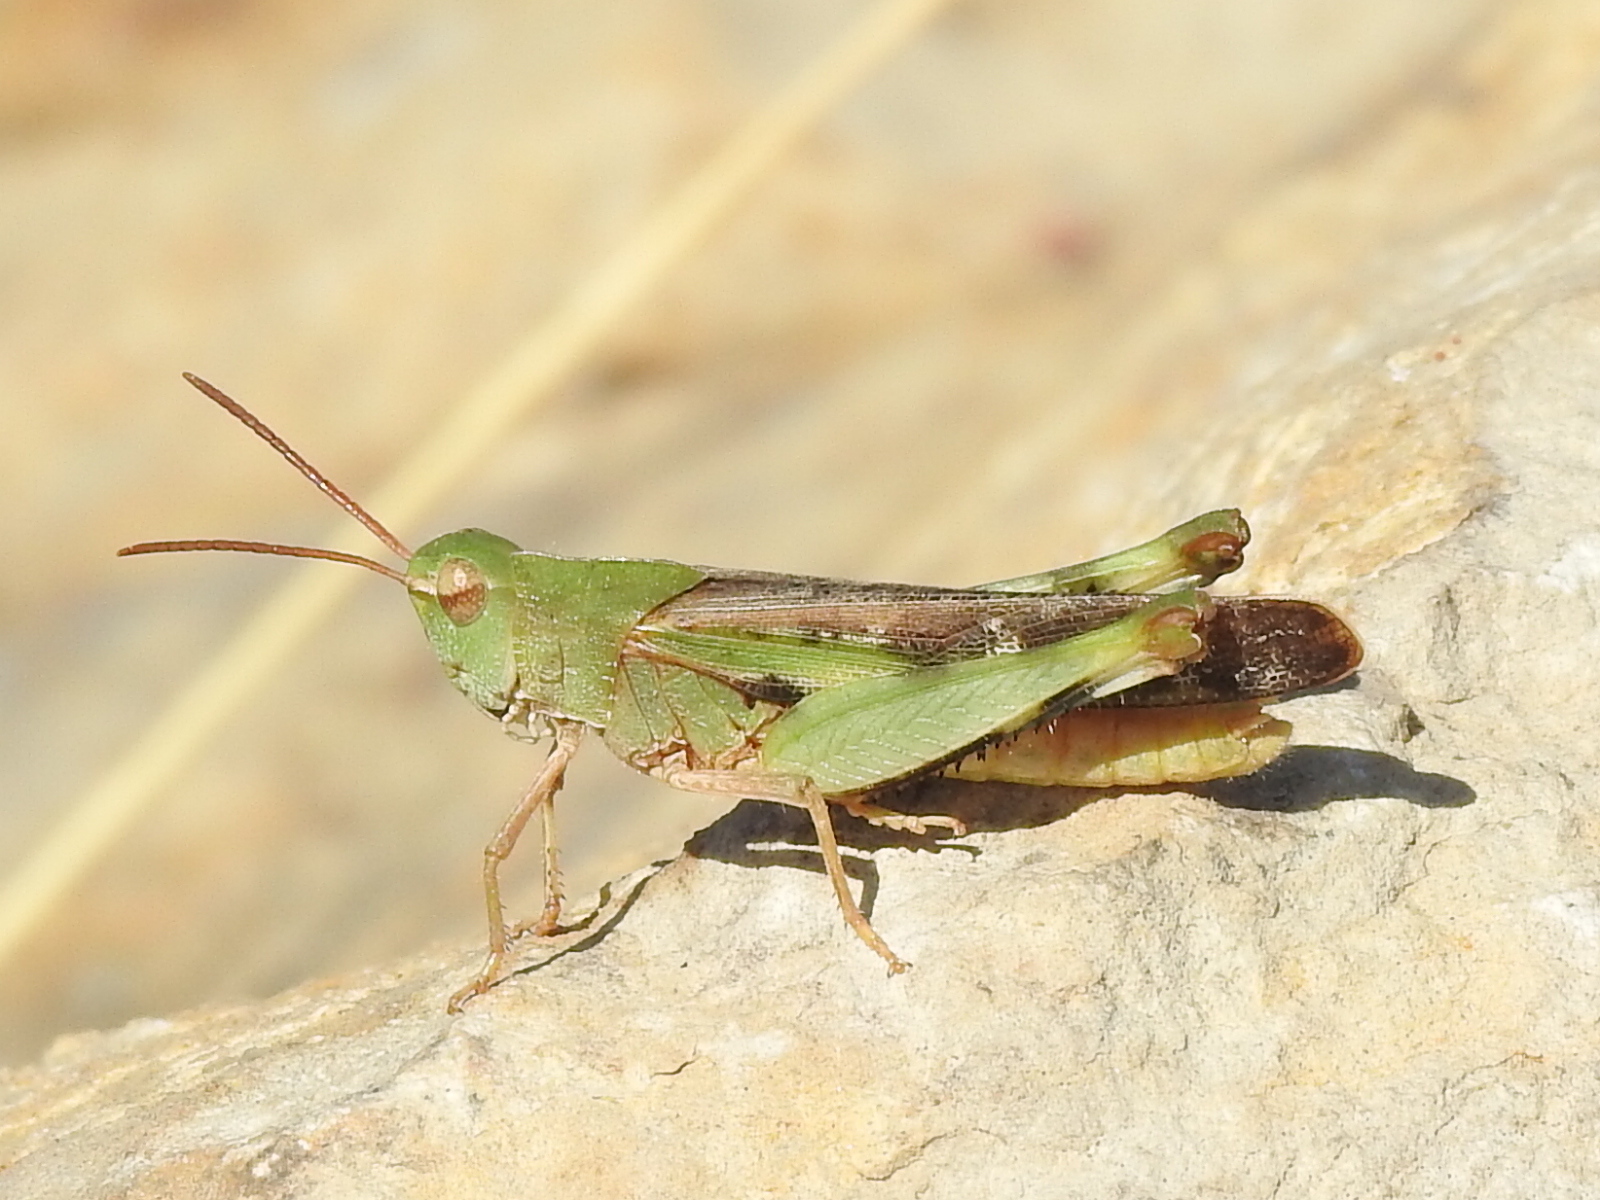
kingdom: Animalia
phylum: Arthropoda
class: Insecta
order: Orthoptera
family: Acrididae
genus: Chortophaga
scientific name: Chortophaga viridifasciata
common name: Green-striped grasshopper
